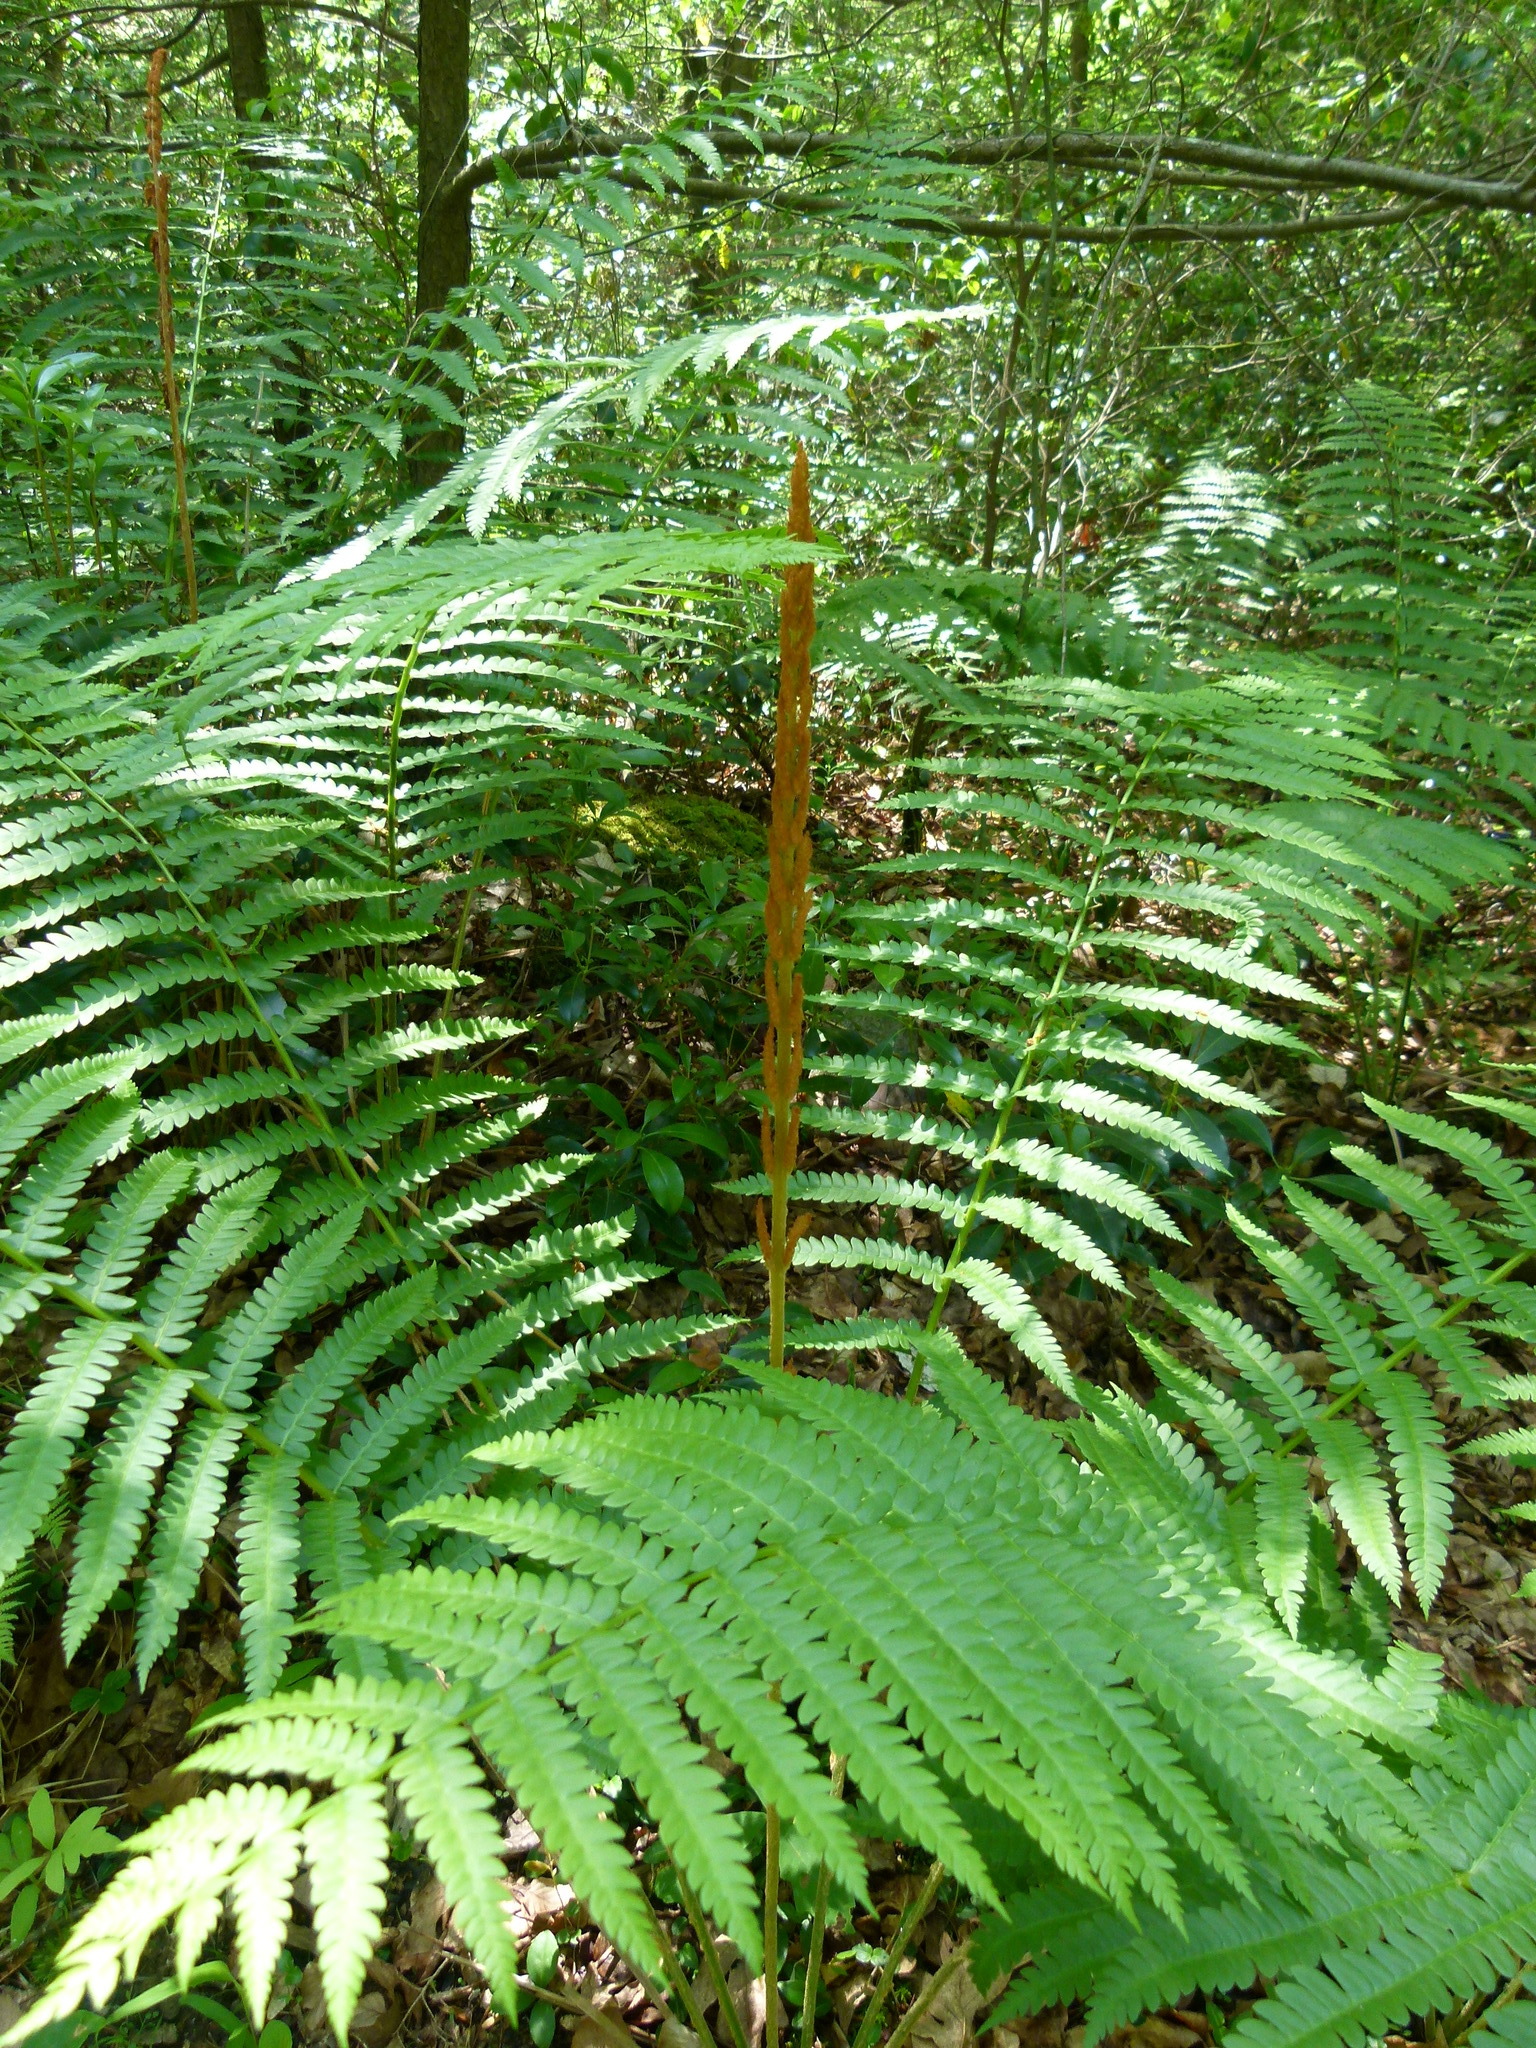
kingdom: Plantae
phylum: Tracheophyta
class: Polypodiopsida
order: Osmundales
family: Osmundaceae
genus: Osmundastrum
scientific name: Osmundastrum cinnamomeum
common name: Cinnamon fern
